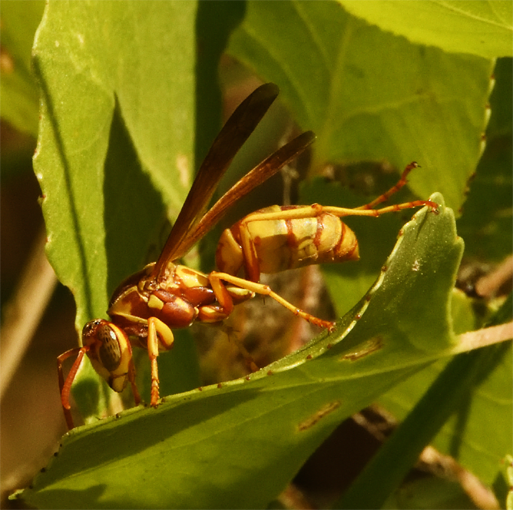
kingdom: Animalia
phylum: Arthropoda
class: Insecta
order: Hymenoptera
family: Vespidae
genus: Fuscopolistes
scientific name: Fuscopolistes
